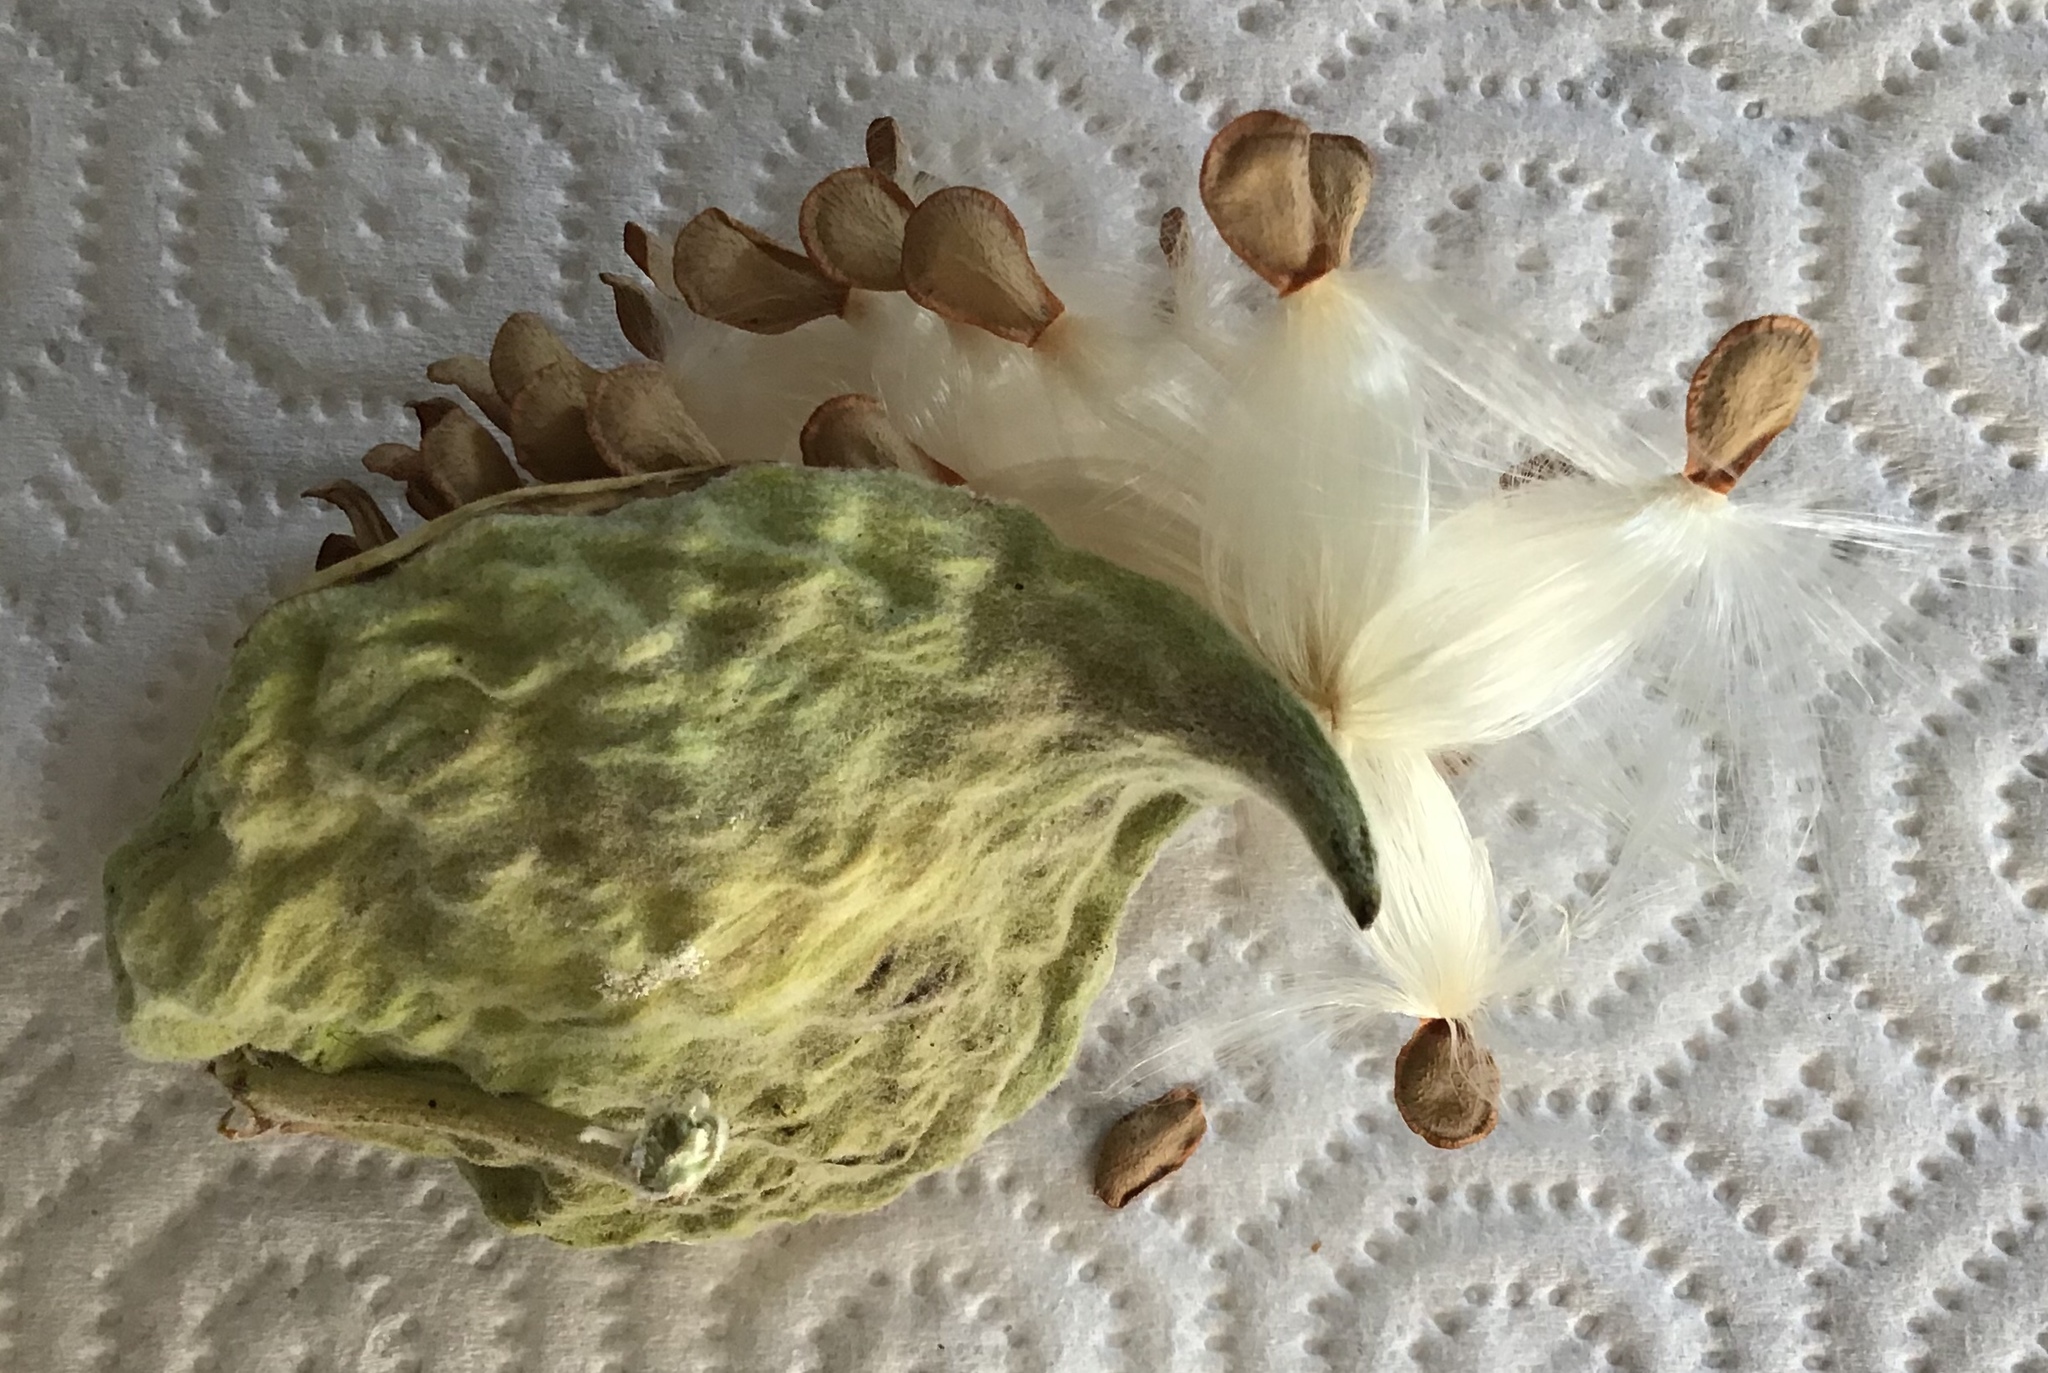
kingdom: Plantae
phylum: Tracheophyta
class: Magnoliopsida
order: Gentianales
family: Apocynaceae
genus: Asclepias
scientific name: Asclepias eriocarpa
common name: Indian milkweed
